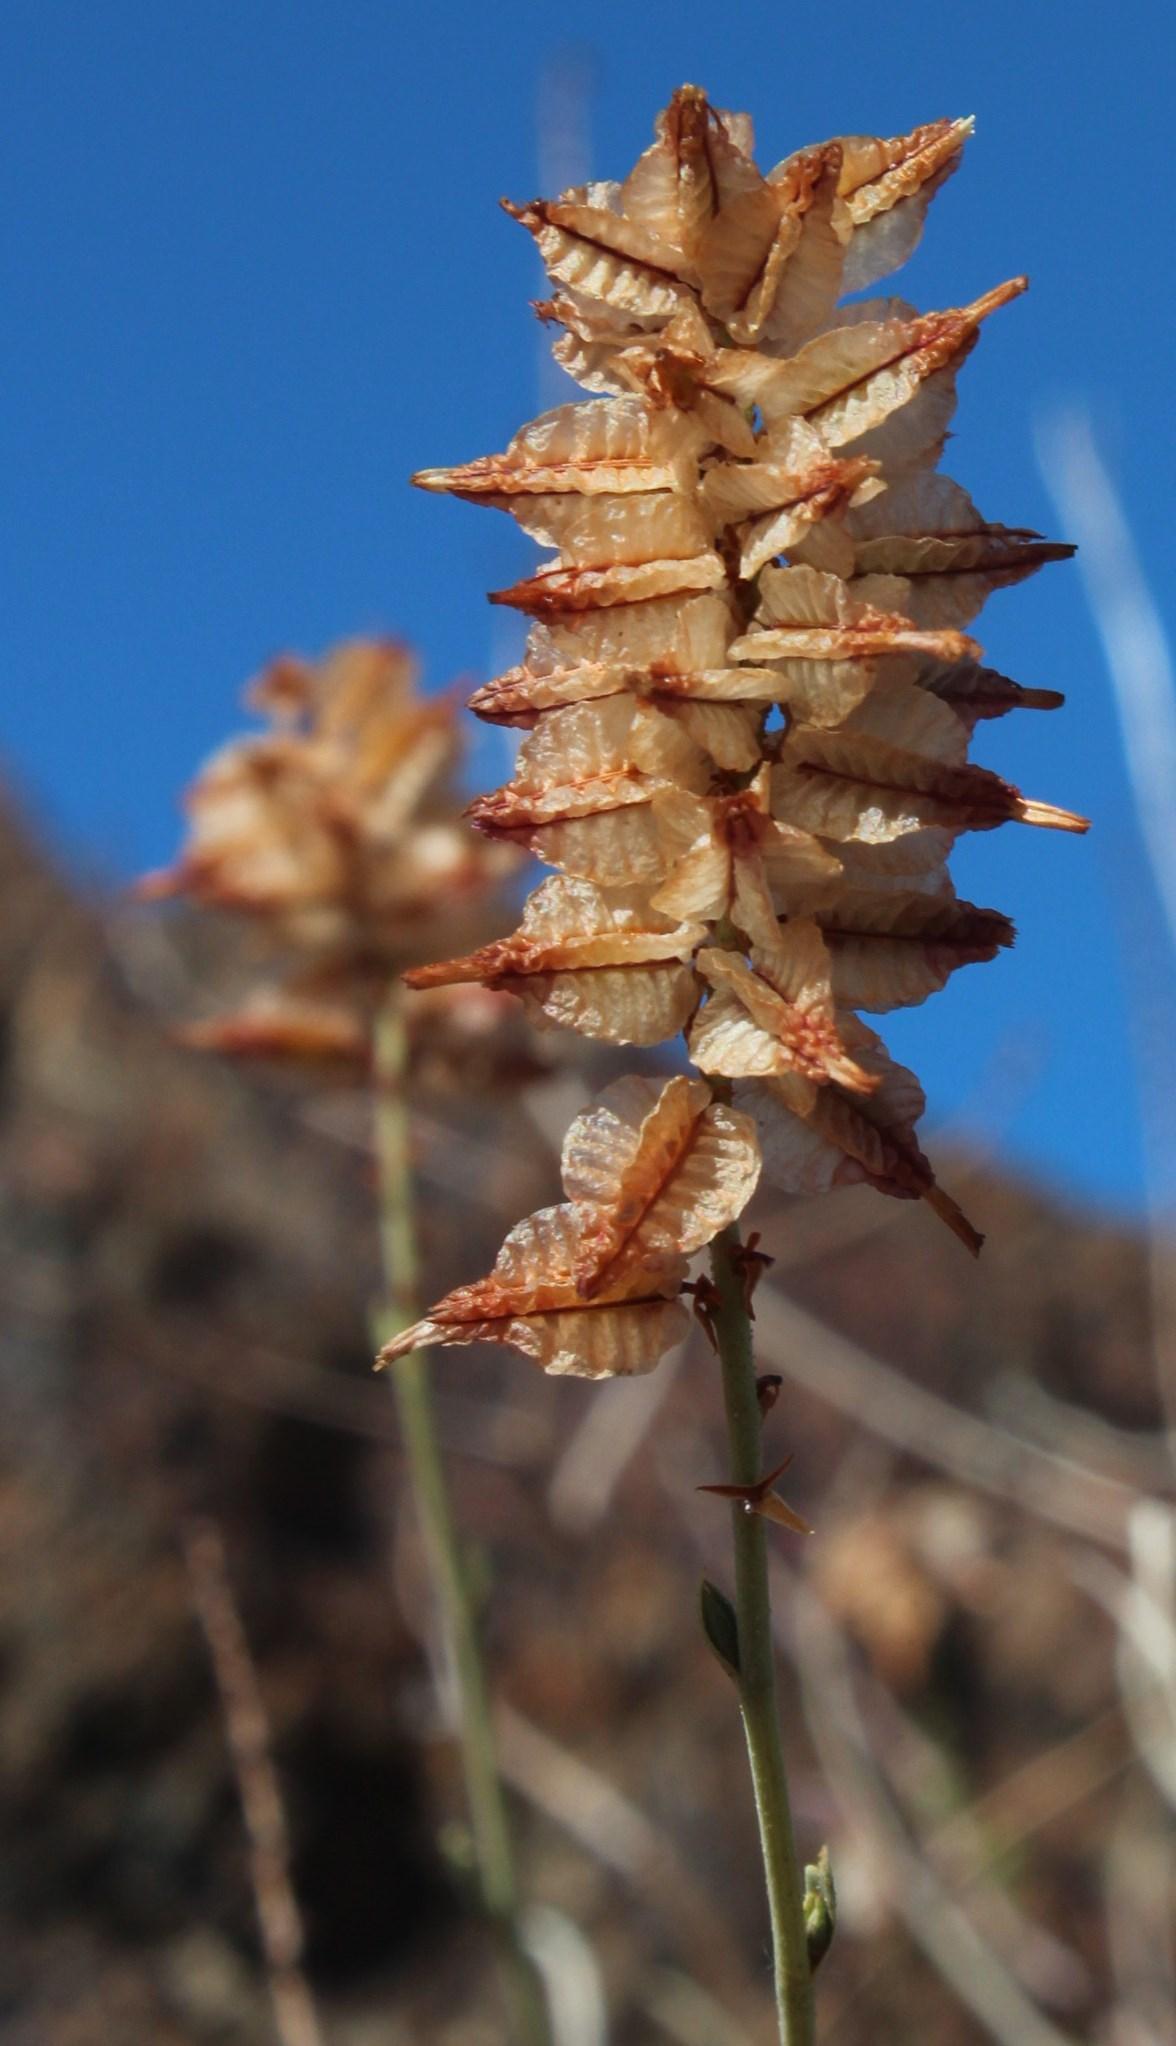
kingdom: Plantae
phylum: Tracheophyta
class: Magnoliopsida
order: Caryophyllales
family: Plumbaginaceae
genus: Dyerophytum
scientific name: Dyerophytum africanum
